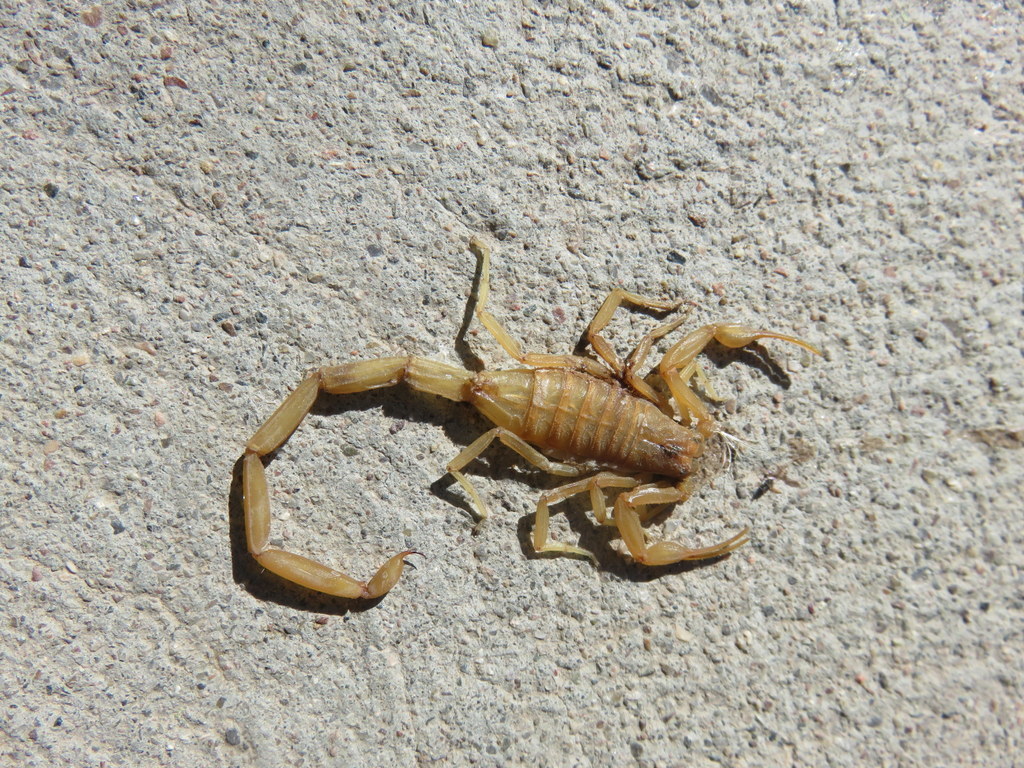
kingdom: Animalia
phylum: Arthropoda
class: Arachnida
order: Scorpiones
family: Buthidae
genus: Centruroides
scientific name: Centruroides sculpturatus
